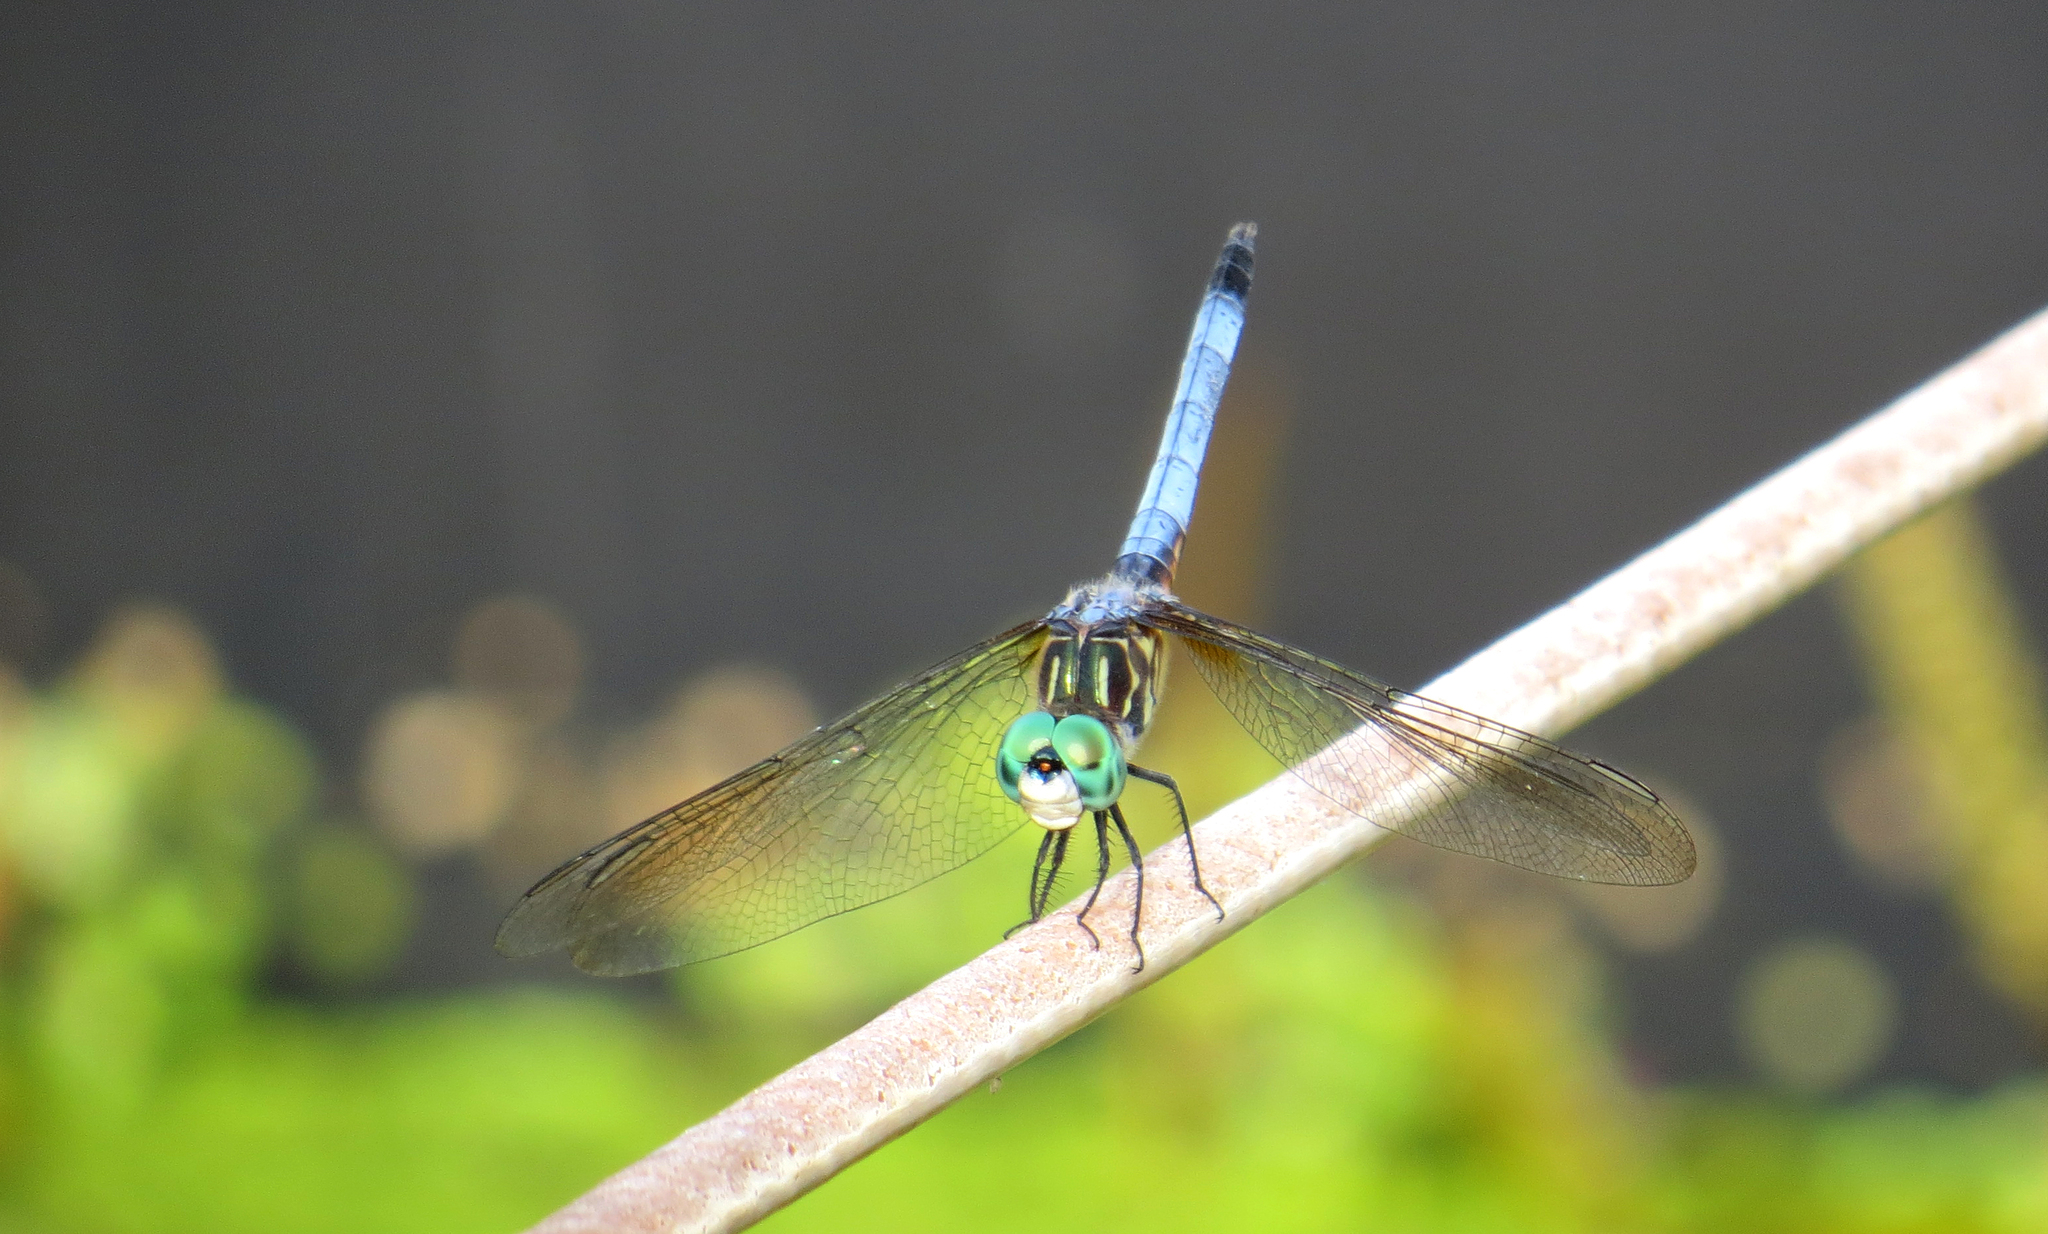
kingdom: Animalia
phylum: Arthropoda
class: Insecta
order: Odonata
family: Libellulidae
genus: Pachydiplax
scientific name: Pachydiplax longipennis
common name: Blue dasher
